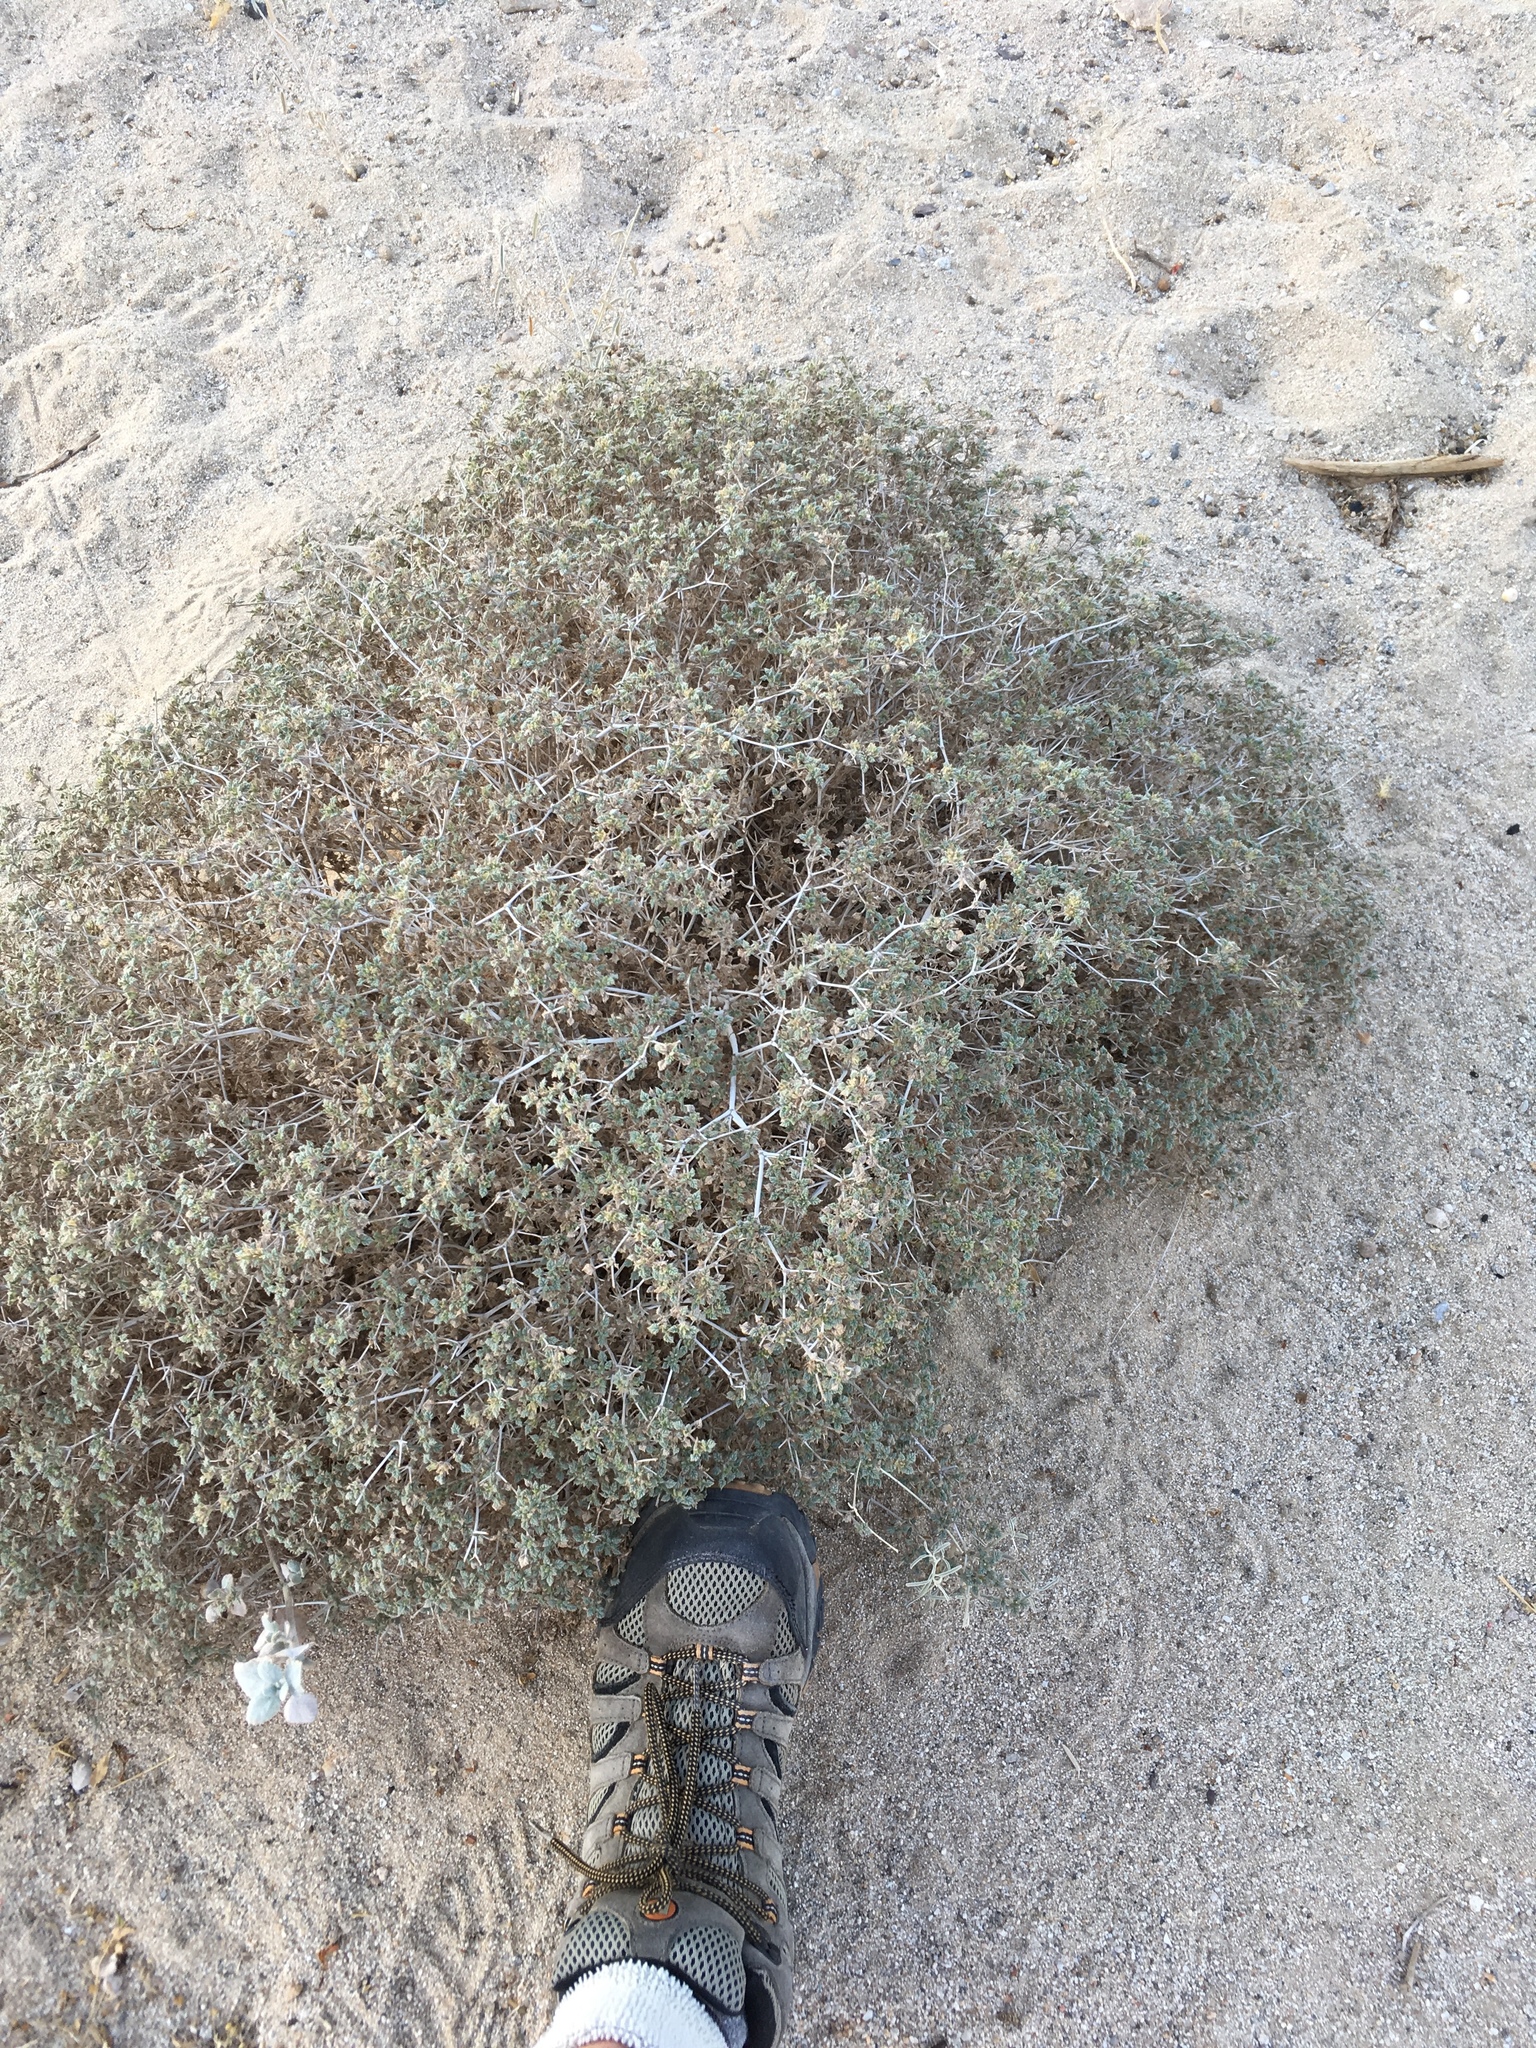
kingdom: Plantae
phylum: Tracheophyta
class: Magnoliopsida
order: Boraginales
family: Ehretiaceae
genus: Tiquilia
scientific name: Tiquilia palmeri
